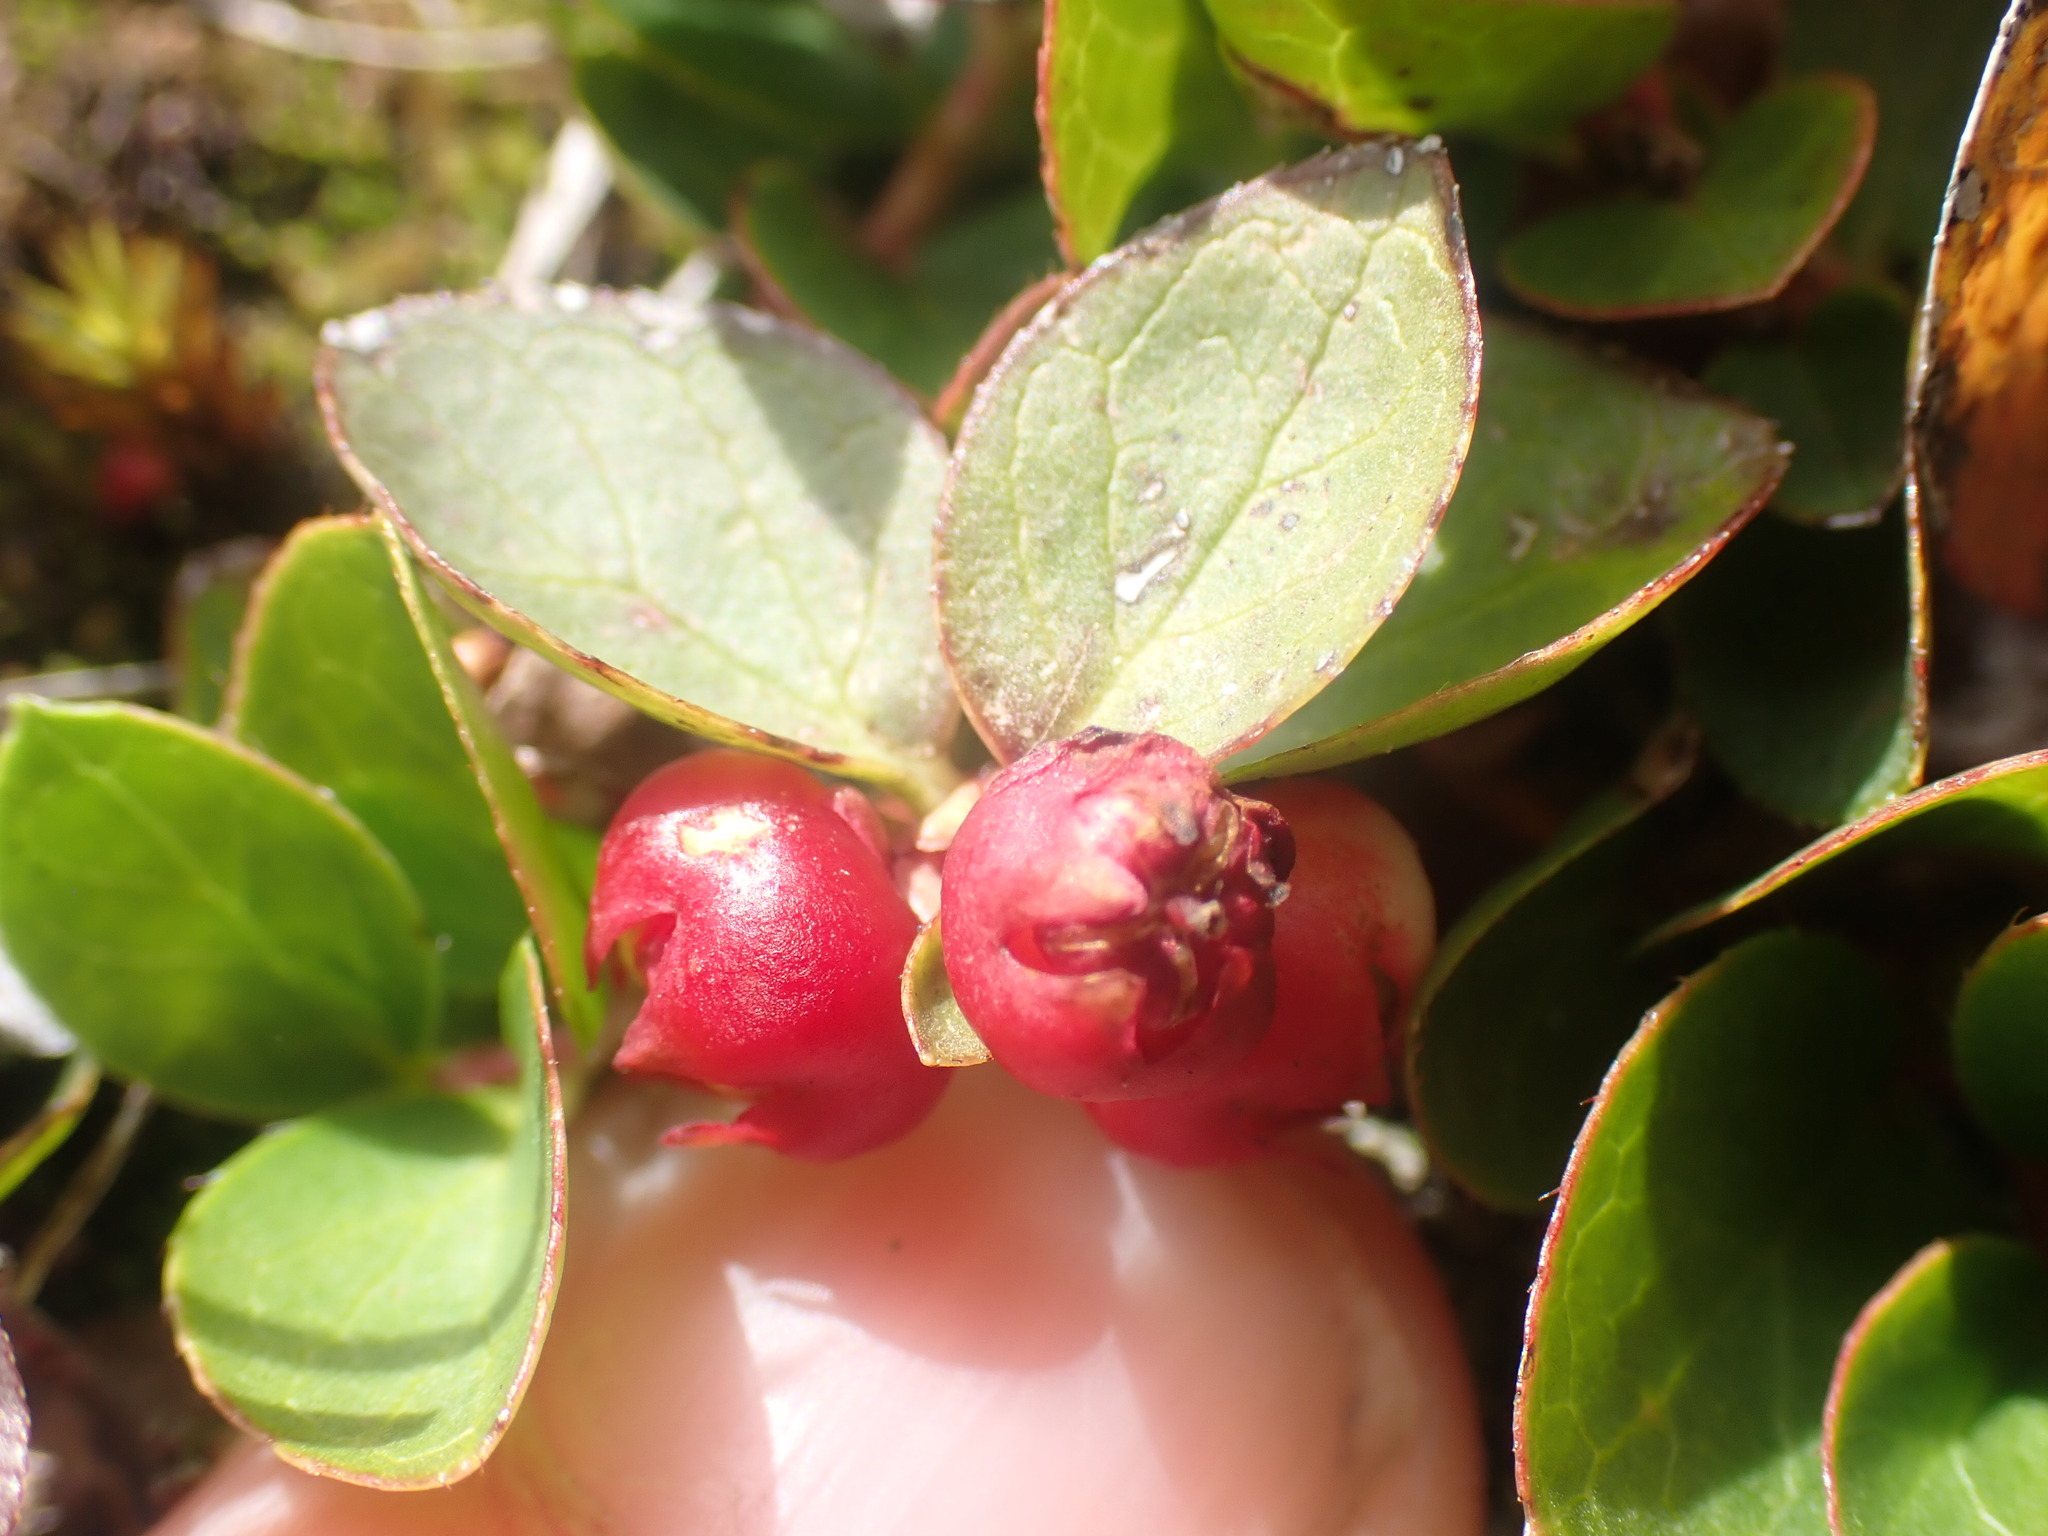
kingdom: Plantae
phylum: Tracheophyta
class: Magnoliopsida
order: Ericales
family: Ericaceae
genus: Gaultheria
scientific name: Gaultheria humifusa
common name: Alpine wintergreen
